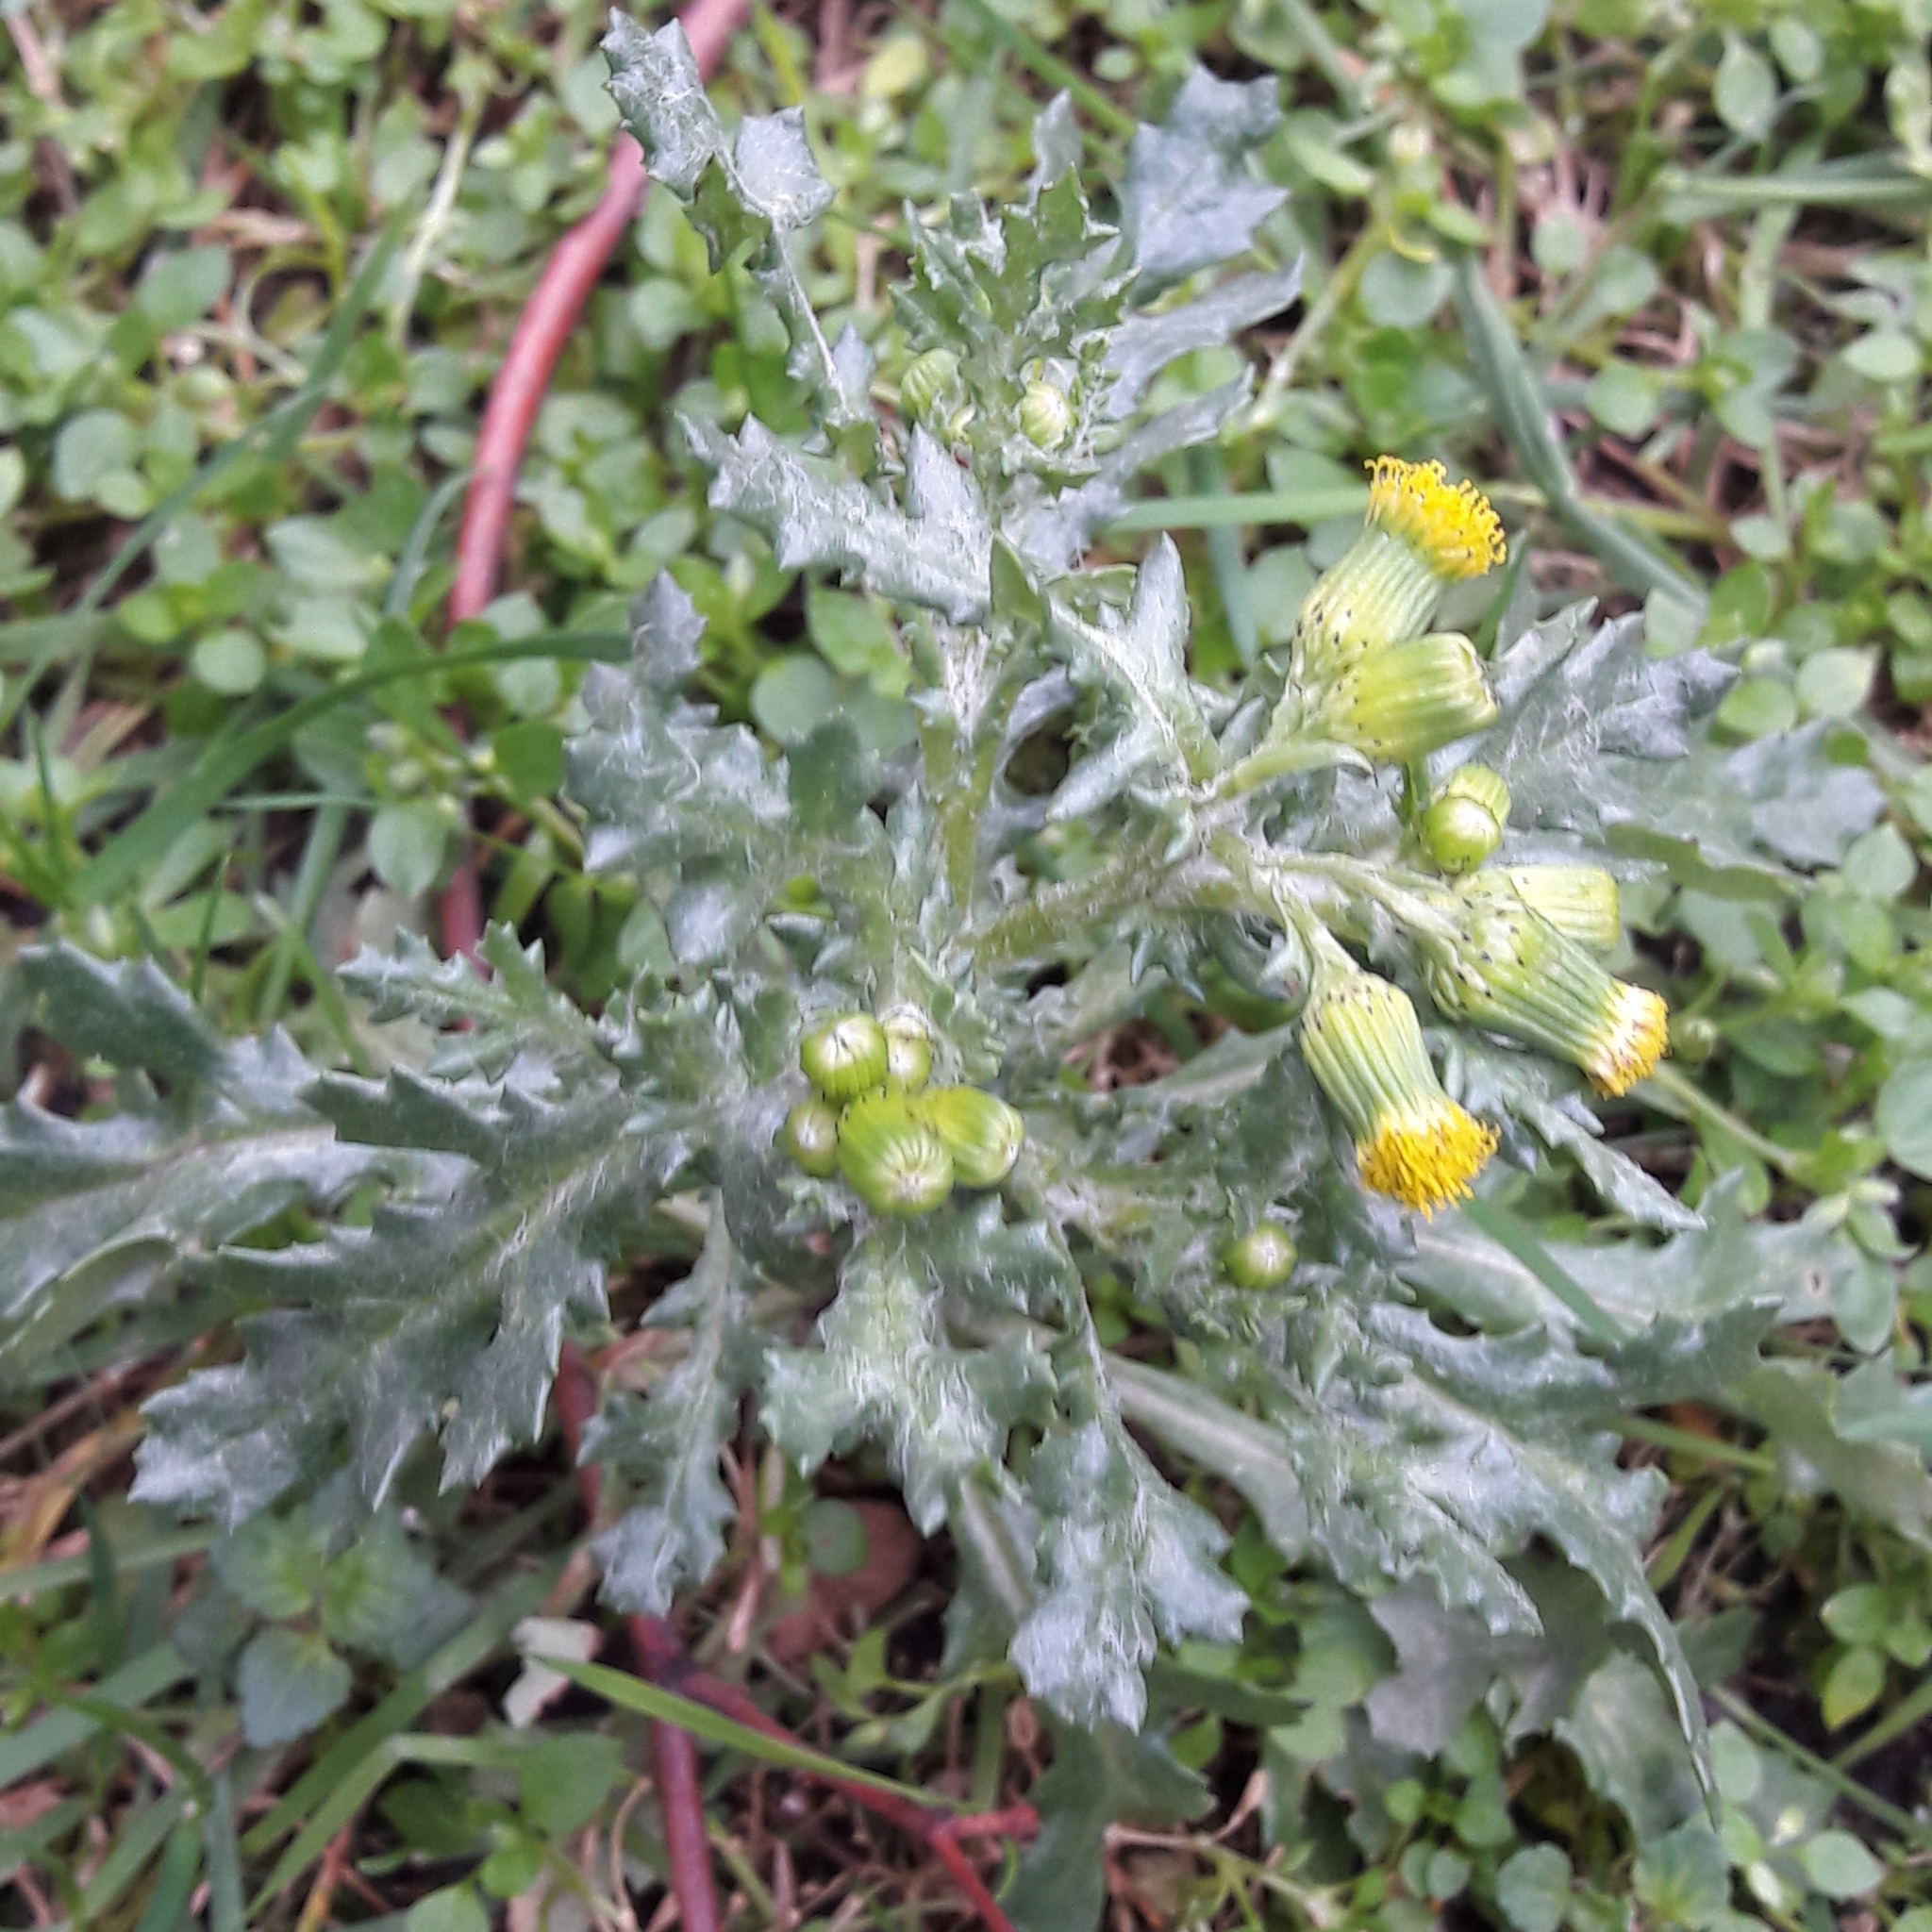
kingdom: Plantae
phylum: Tracheophyta
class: Magnoliopsida
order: Asterales
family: Asteraceae
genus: Senecio
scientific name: Senecio vulgaris
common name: Old-man-in-the-spring
